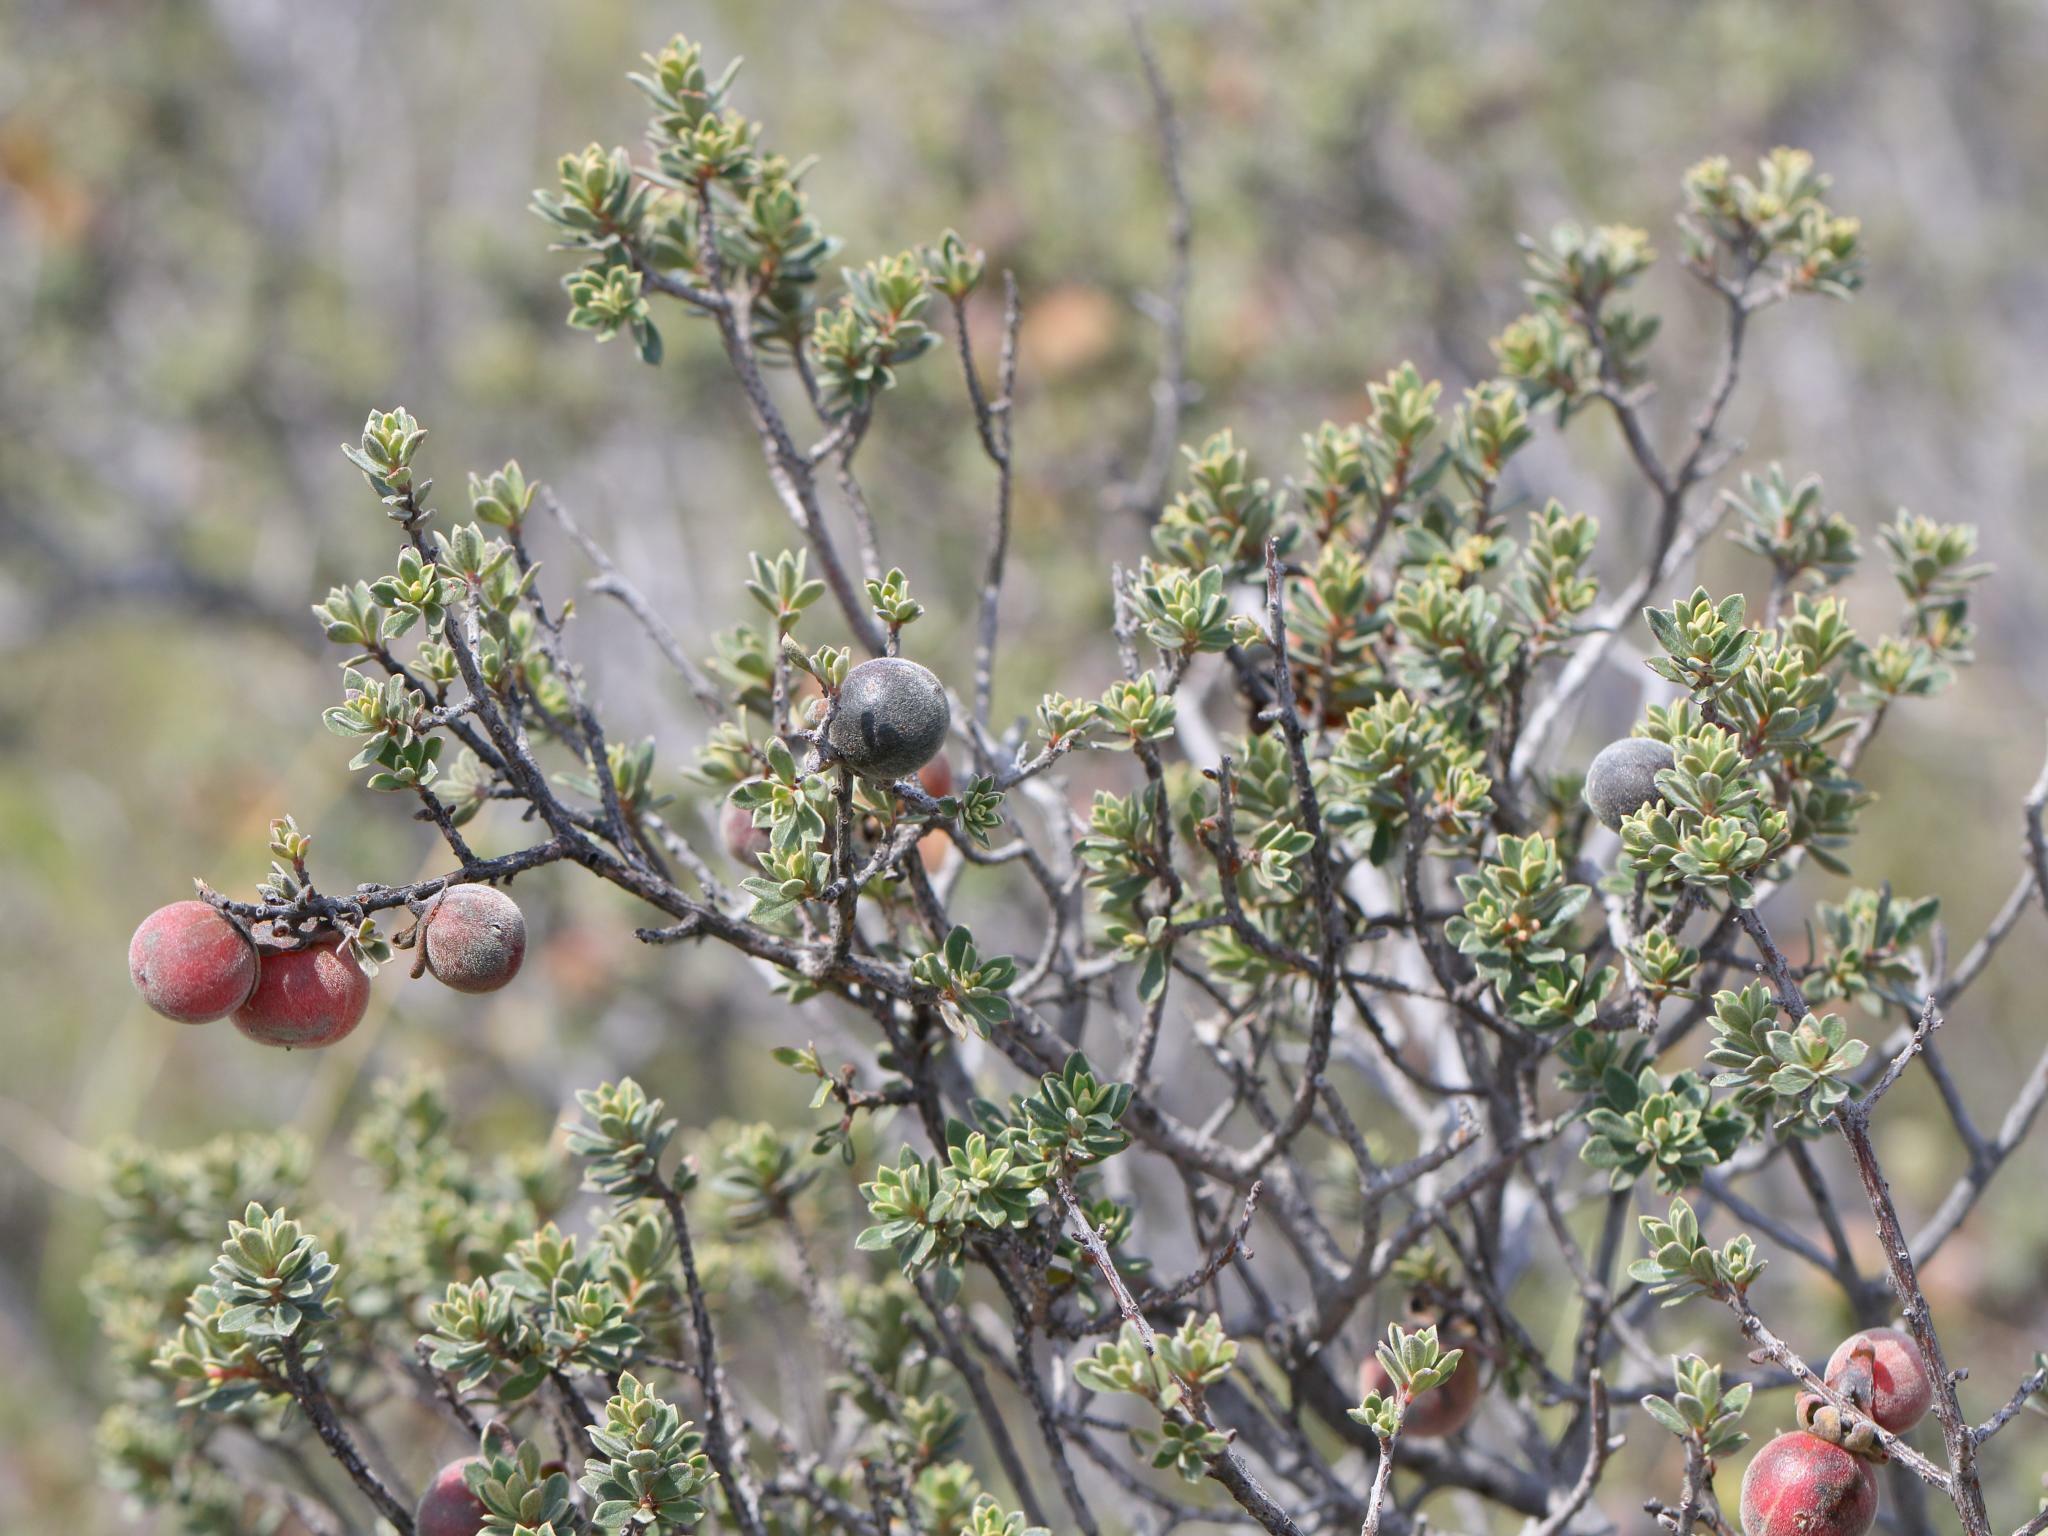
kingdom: Plantae
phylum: Tracheophyta
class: Magnoliopsida
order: Ericales
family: Ebenaceae
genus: Diospyros
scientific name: Diospyros pubescens
